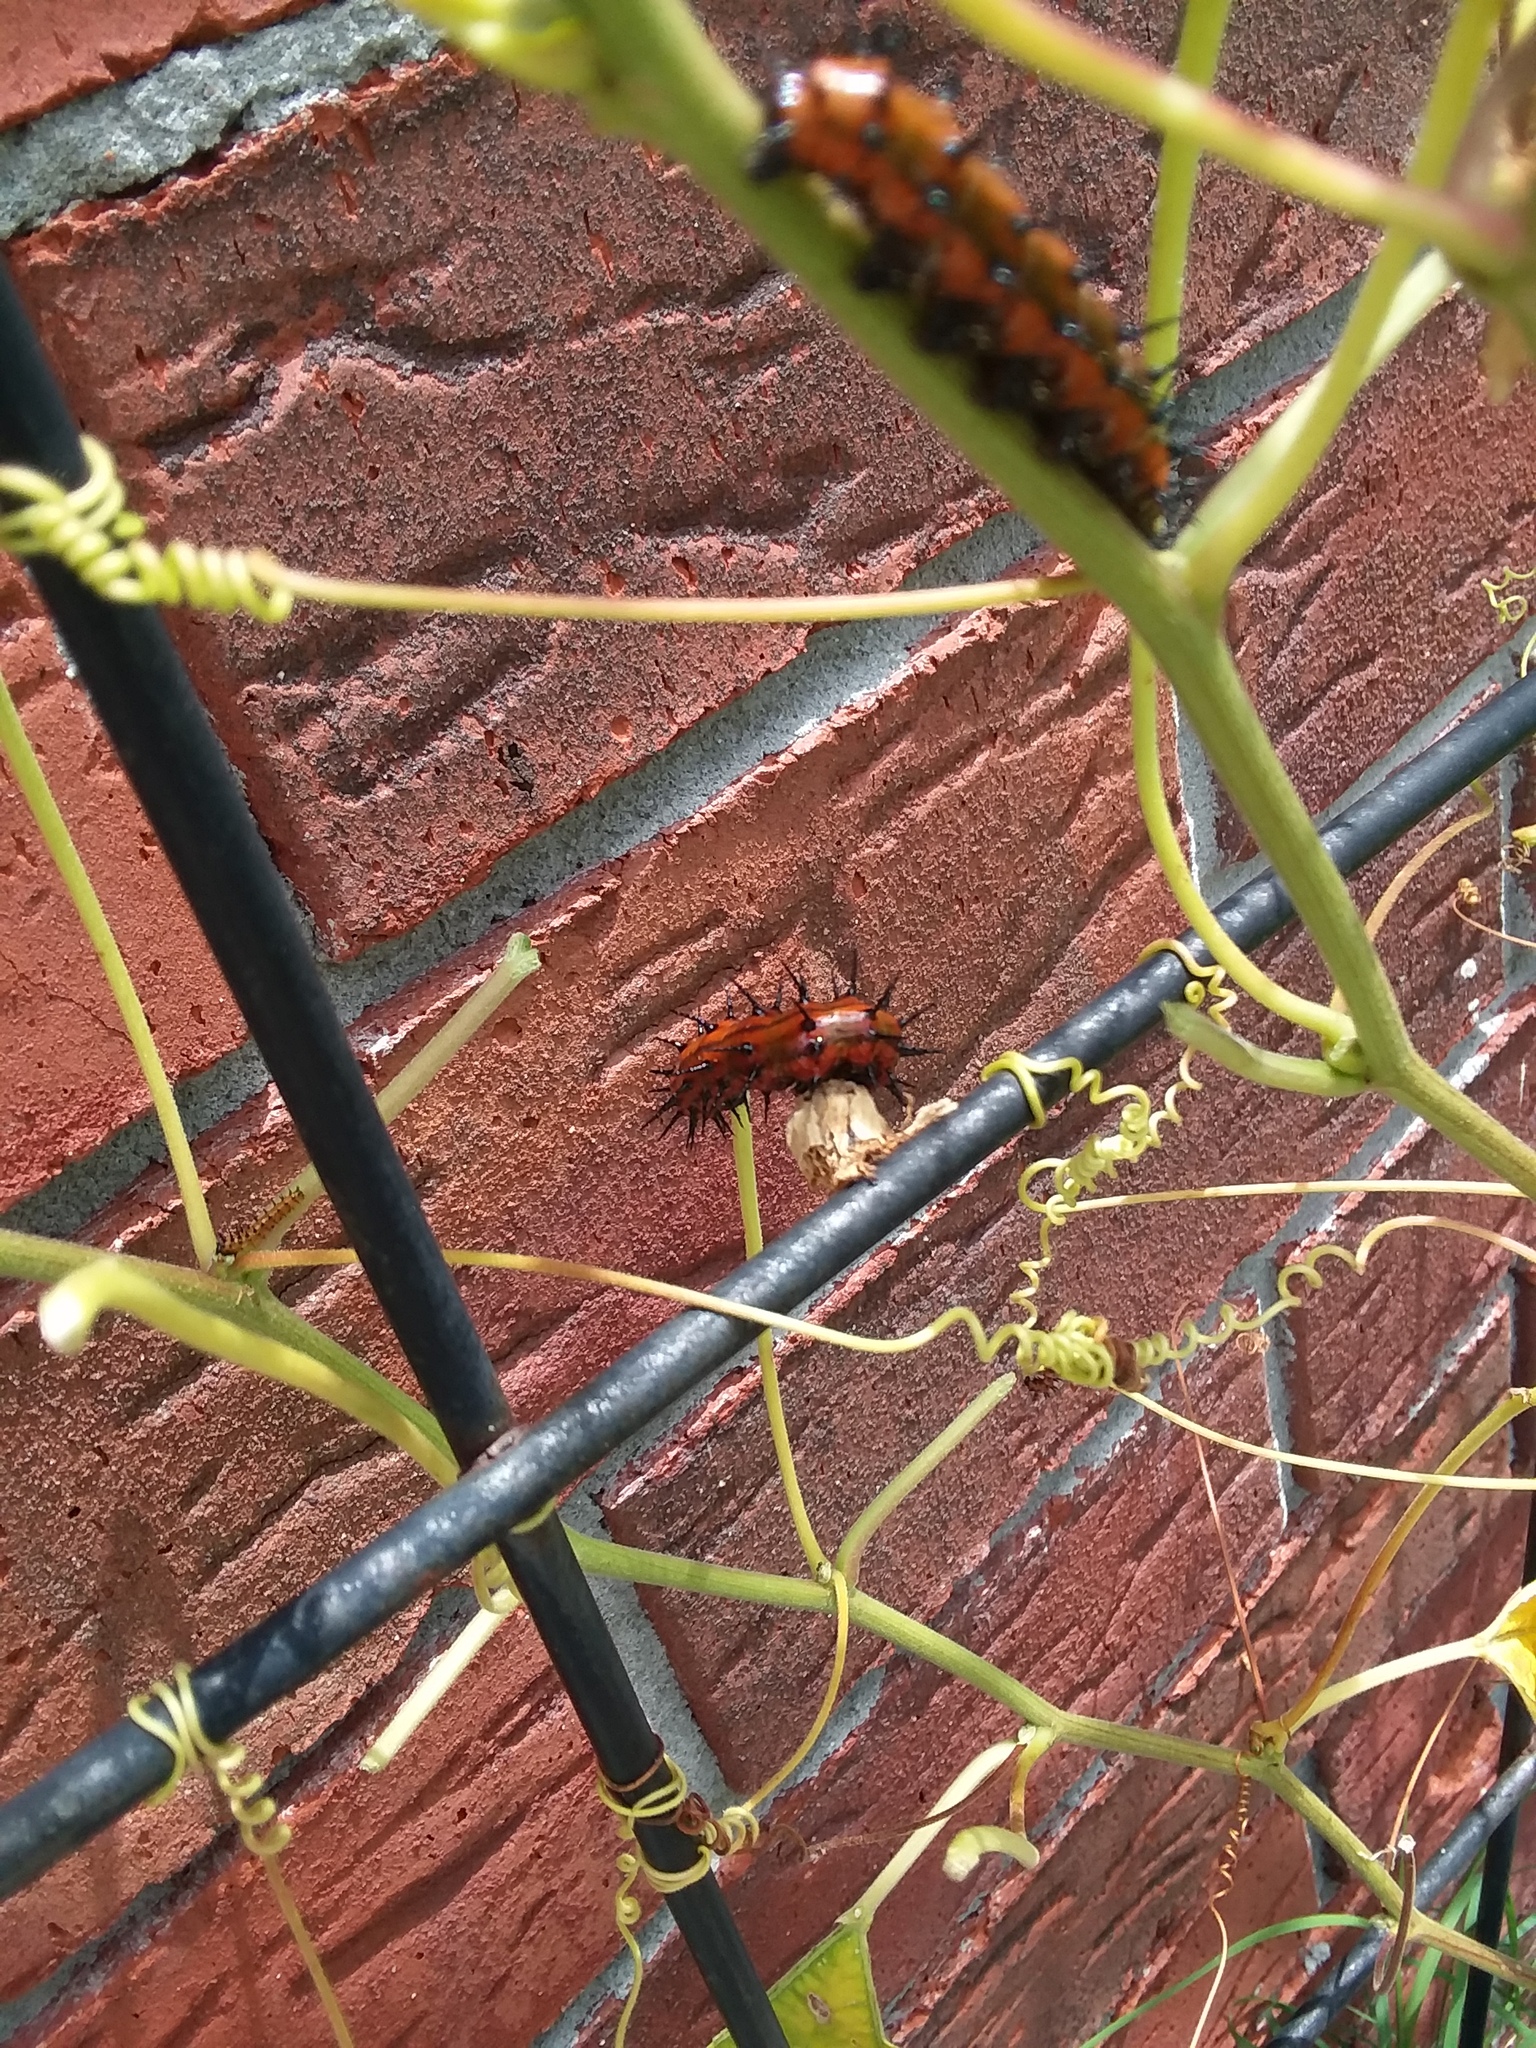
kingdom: Animalia
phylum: Arthropoda
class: Insecta
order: Lepidoptera
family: Nymphalidae
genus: Dione
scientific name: Dione vanillae
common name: Gulf fritillary
